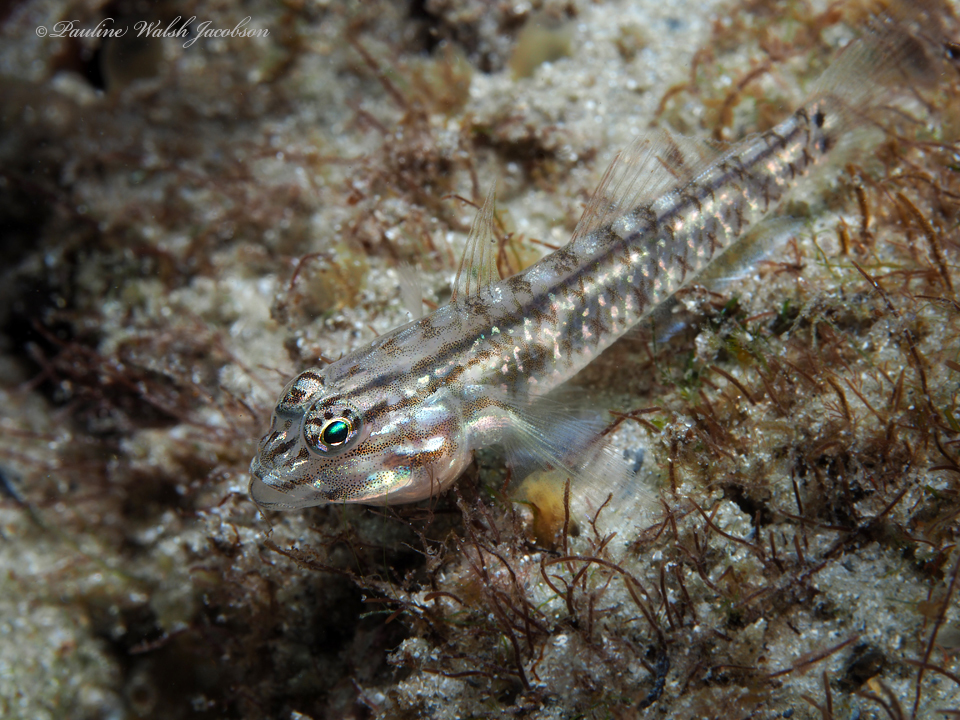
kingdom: Animalia
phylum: Chordata
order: Perciformes
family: Gobiidae
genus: Coryphopterus
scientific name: Coryphopterus glaucofraenum
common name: Bridled goby
